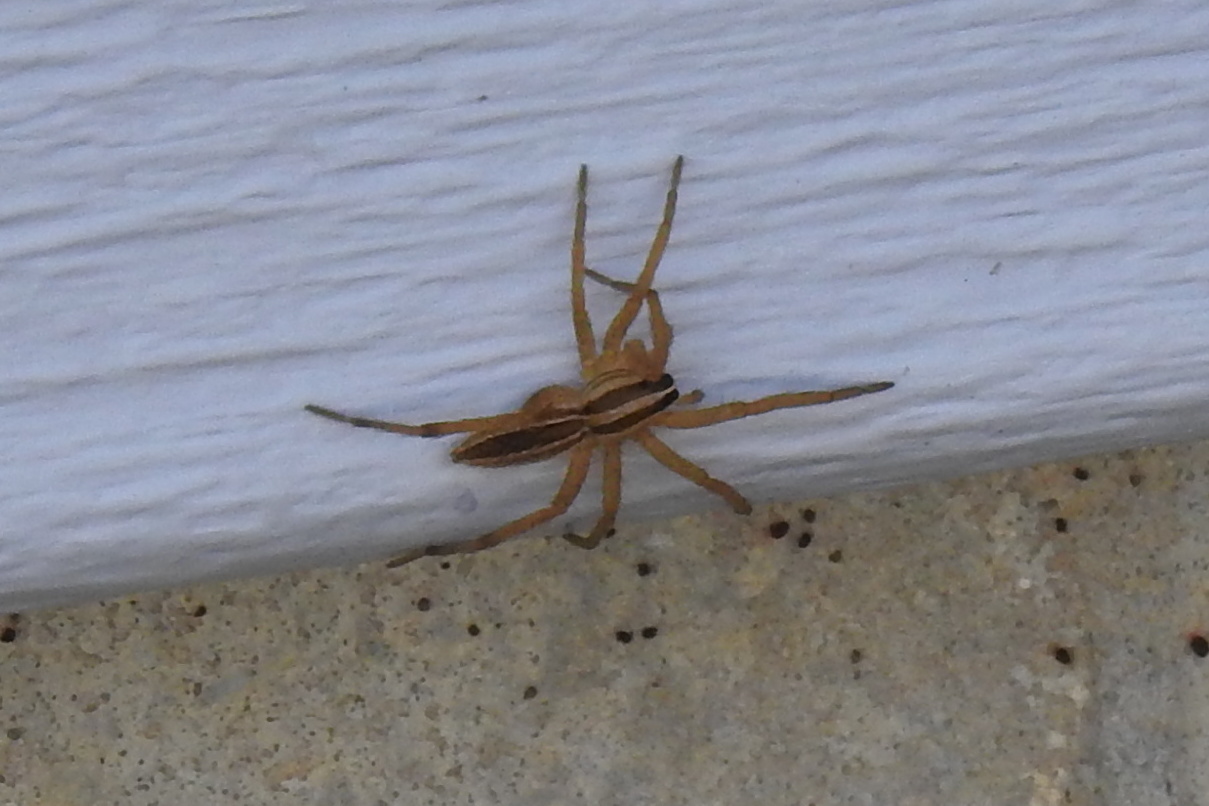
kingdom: Animalia
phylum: Arthropoda
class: Arachnida
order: Araneae
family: Lycosidae
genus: Rabidosa
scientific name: Rabidosa rabida
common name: Rabid wolf spider
